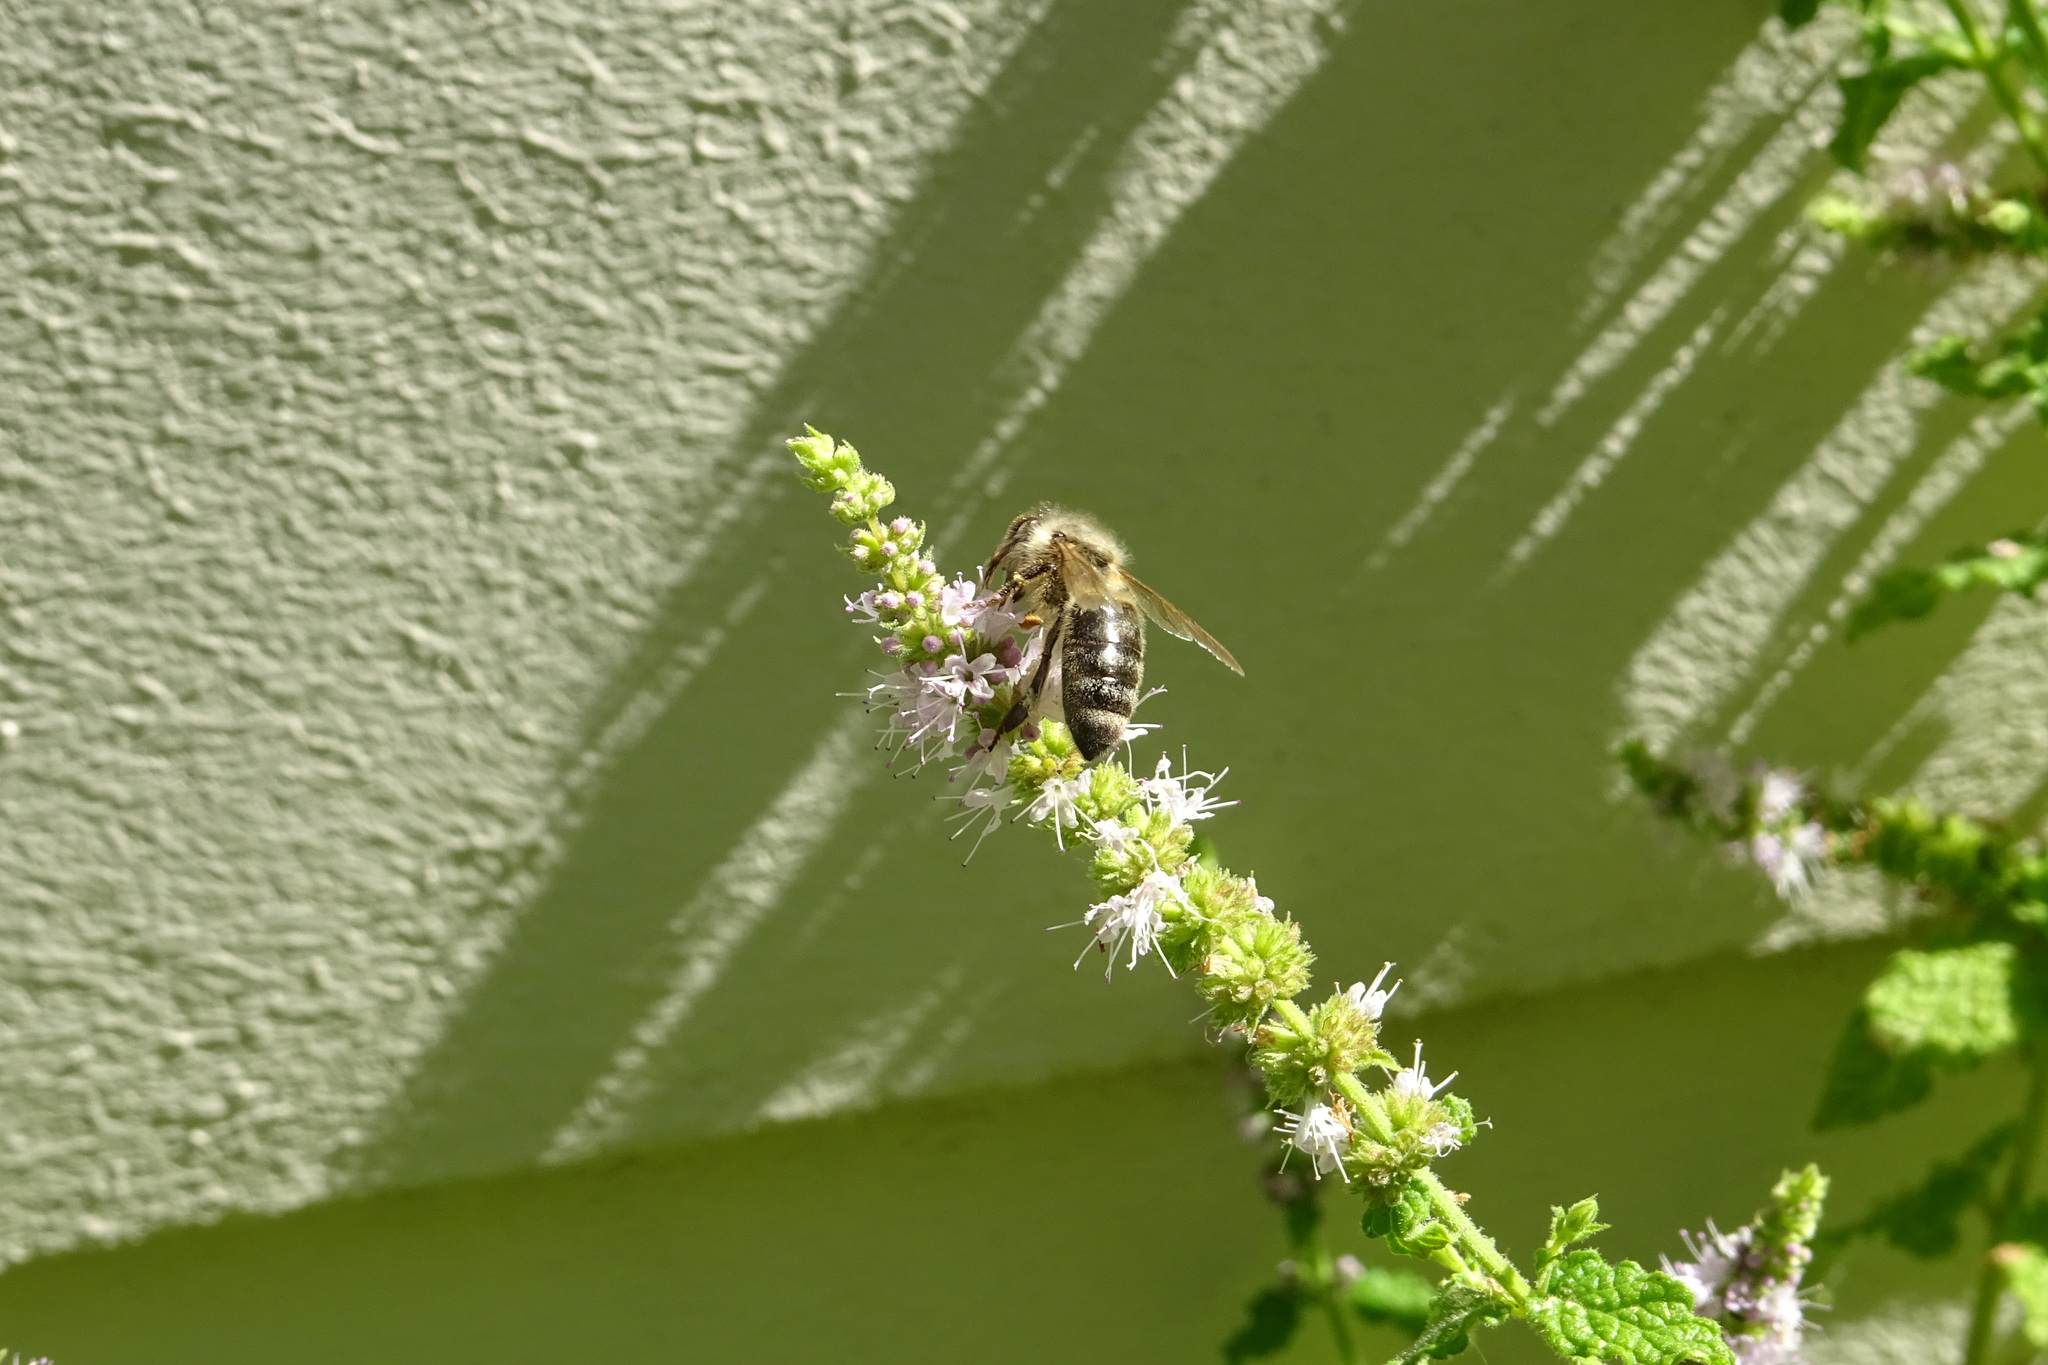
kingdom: Animalia
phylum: Arthropoda
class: Insecta
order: Hymenoptera
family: Apidae
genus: Apis
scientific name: Apis mellifera
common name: Honey bee
